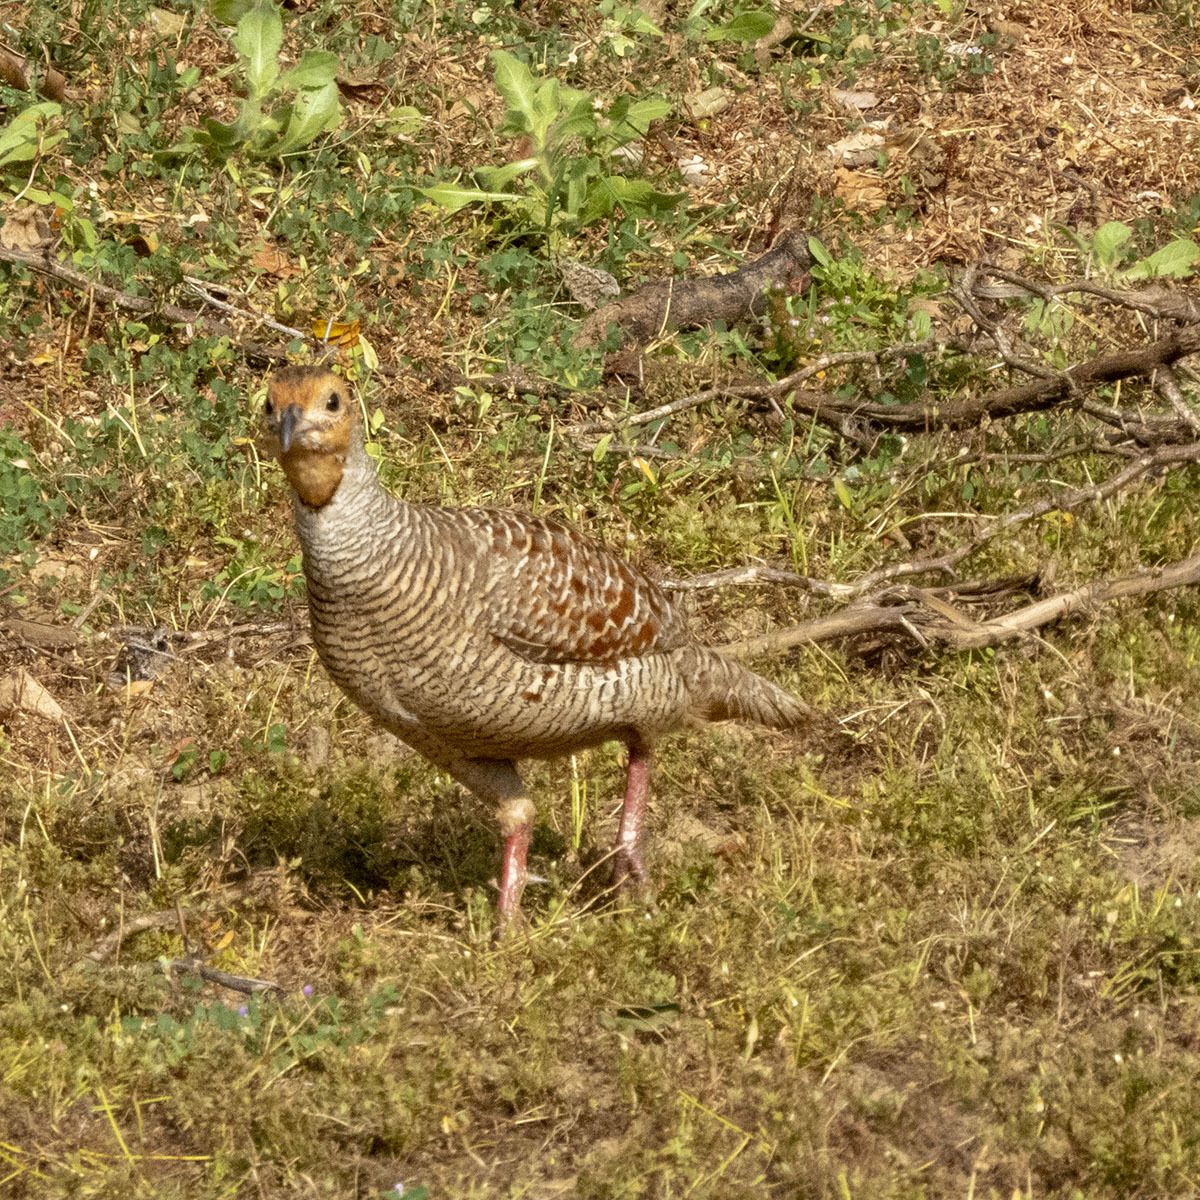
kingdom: Animalia
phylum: Chordata
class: Aves
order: Galliformes
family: Phasianidae
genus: Ortygornis
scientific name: Ortygornis pondicerianus
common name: Grey francolin
